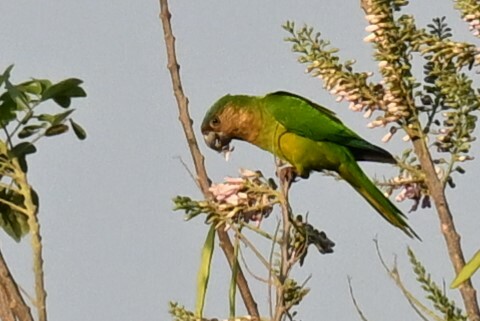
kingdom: Animalia
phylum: Chordata
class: Aves
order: Psittaciformes
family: Psittacidae
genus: Aratinga
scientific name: Aratinga pertinax
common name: Brown-throated parakeet
